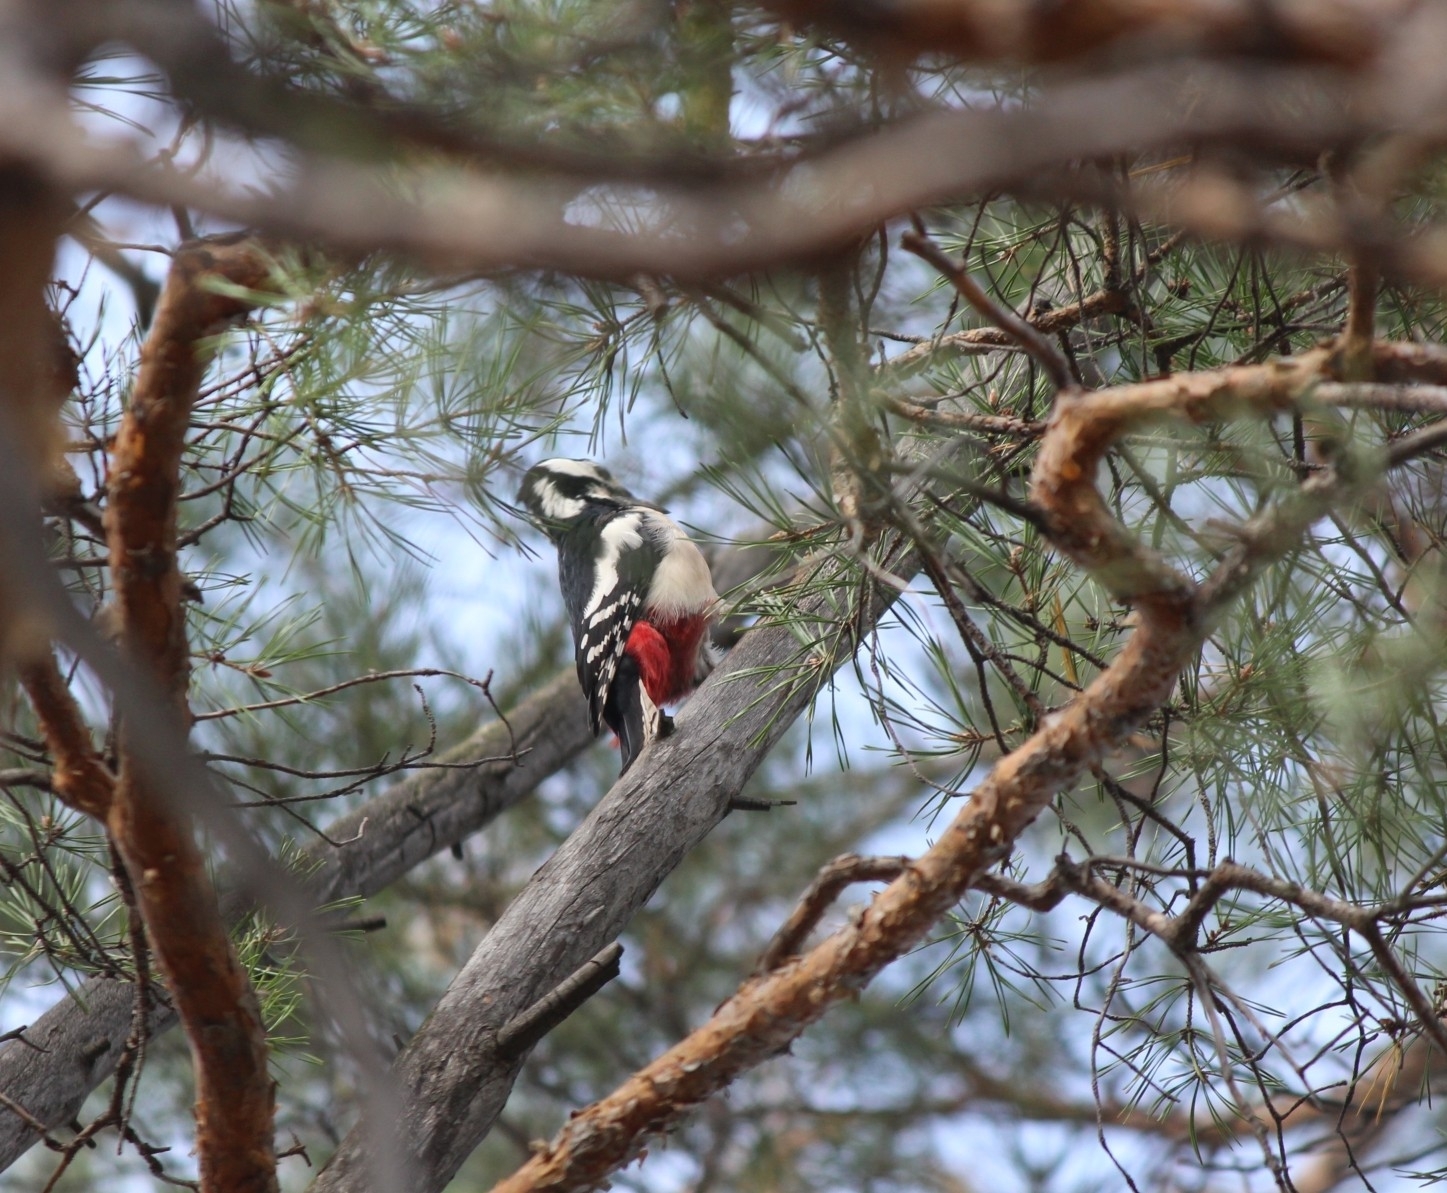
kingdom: Animalia
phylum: Chordata
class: Aves
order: Piciformes
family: Picidae
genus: Dendrocopos
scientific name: Dendrocopos major
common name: Great spotted woodpecker
